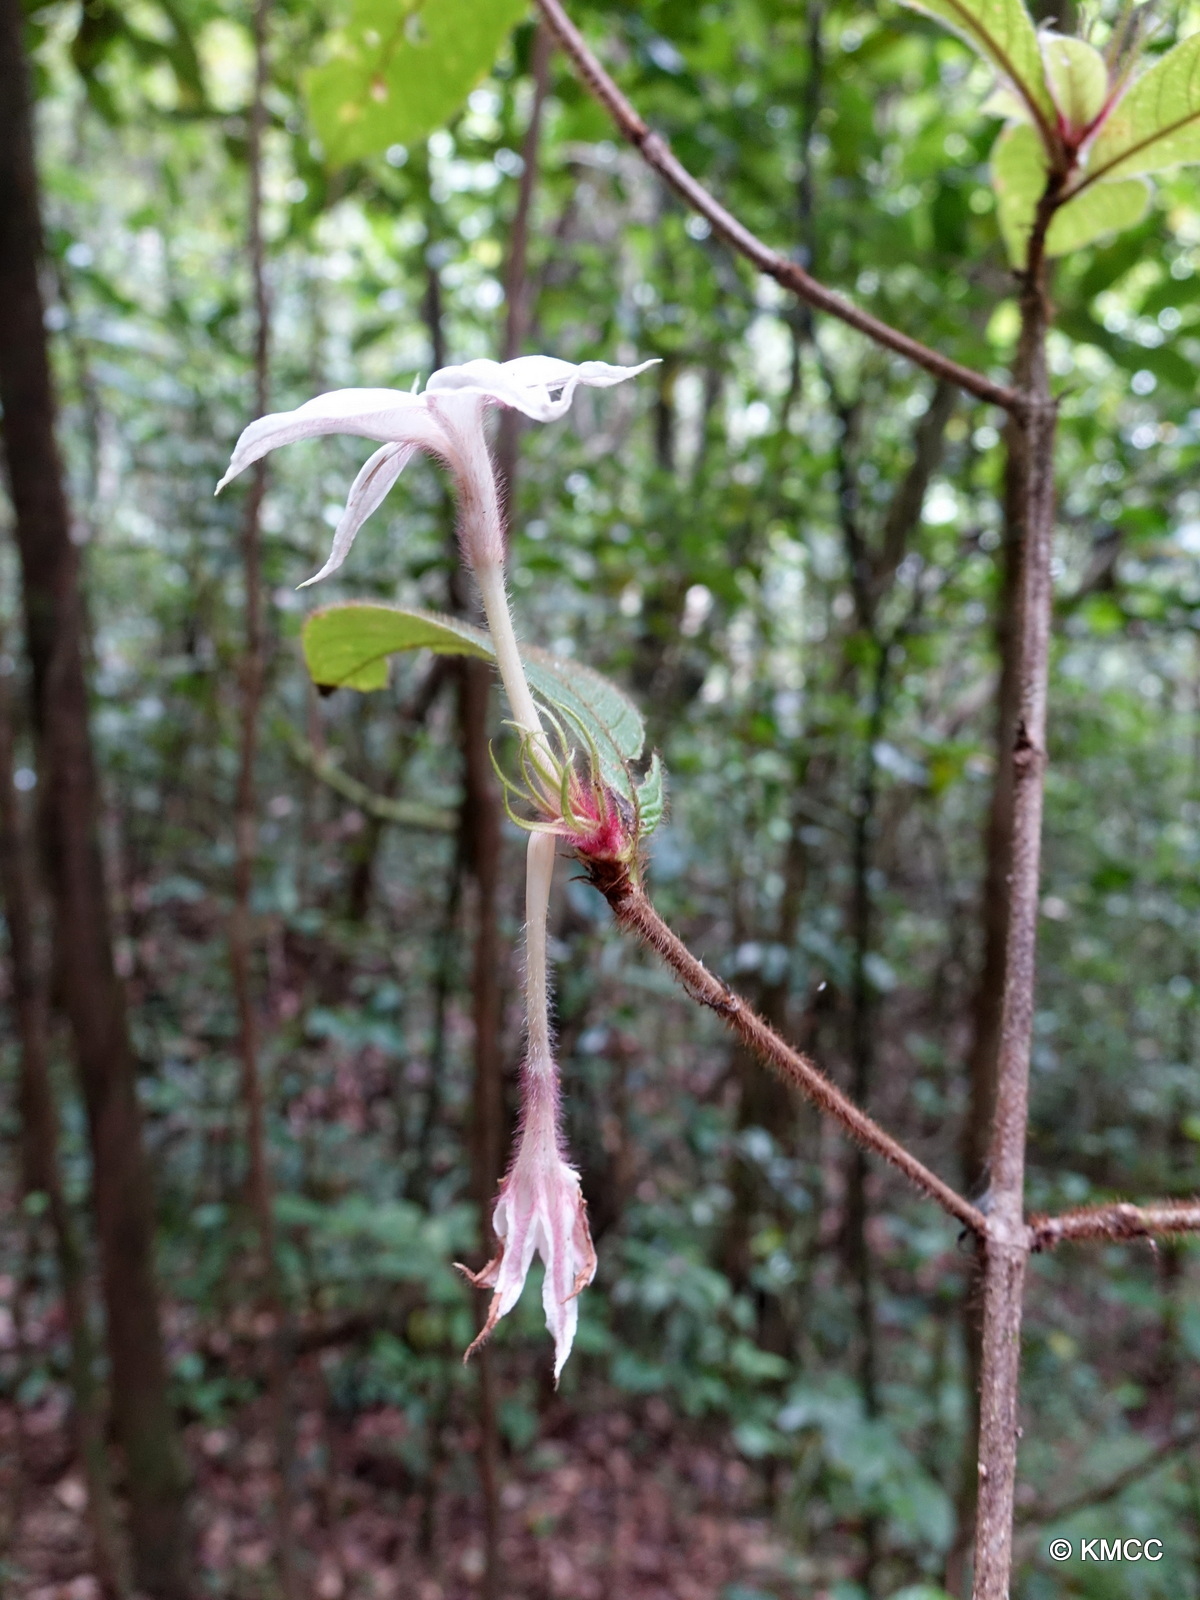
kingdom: Plantae
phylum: Tracheophyta
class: Magnoliopsida
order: Gentianales
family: Rubiaceae
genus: Bremeria
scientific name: Bremeria hymenopogonoides
